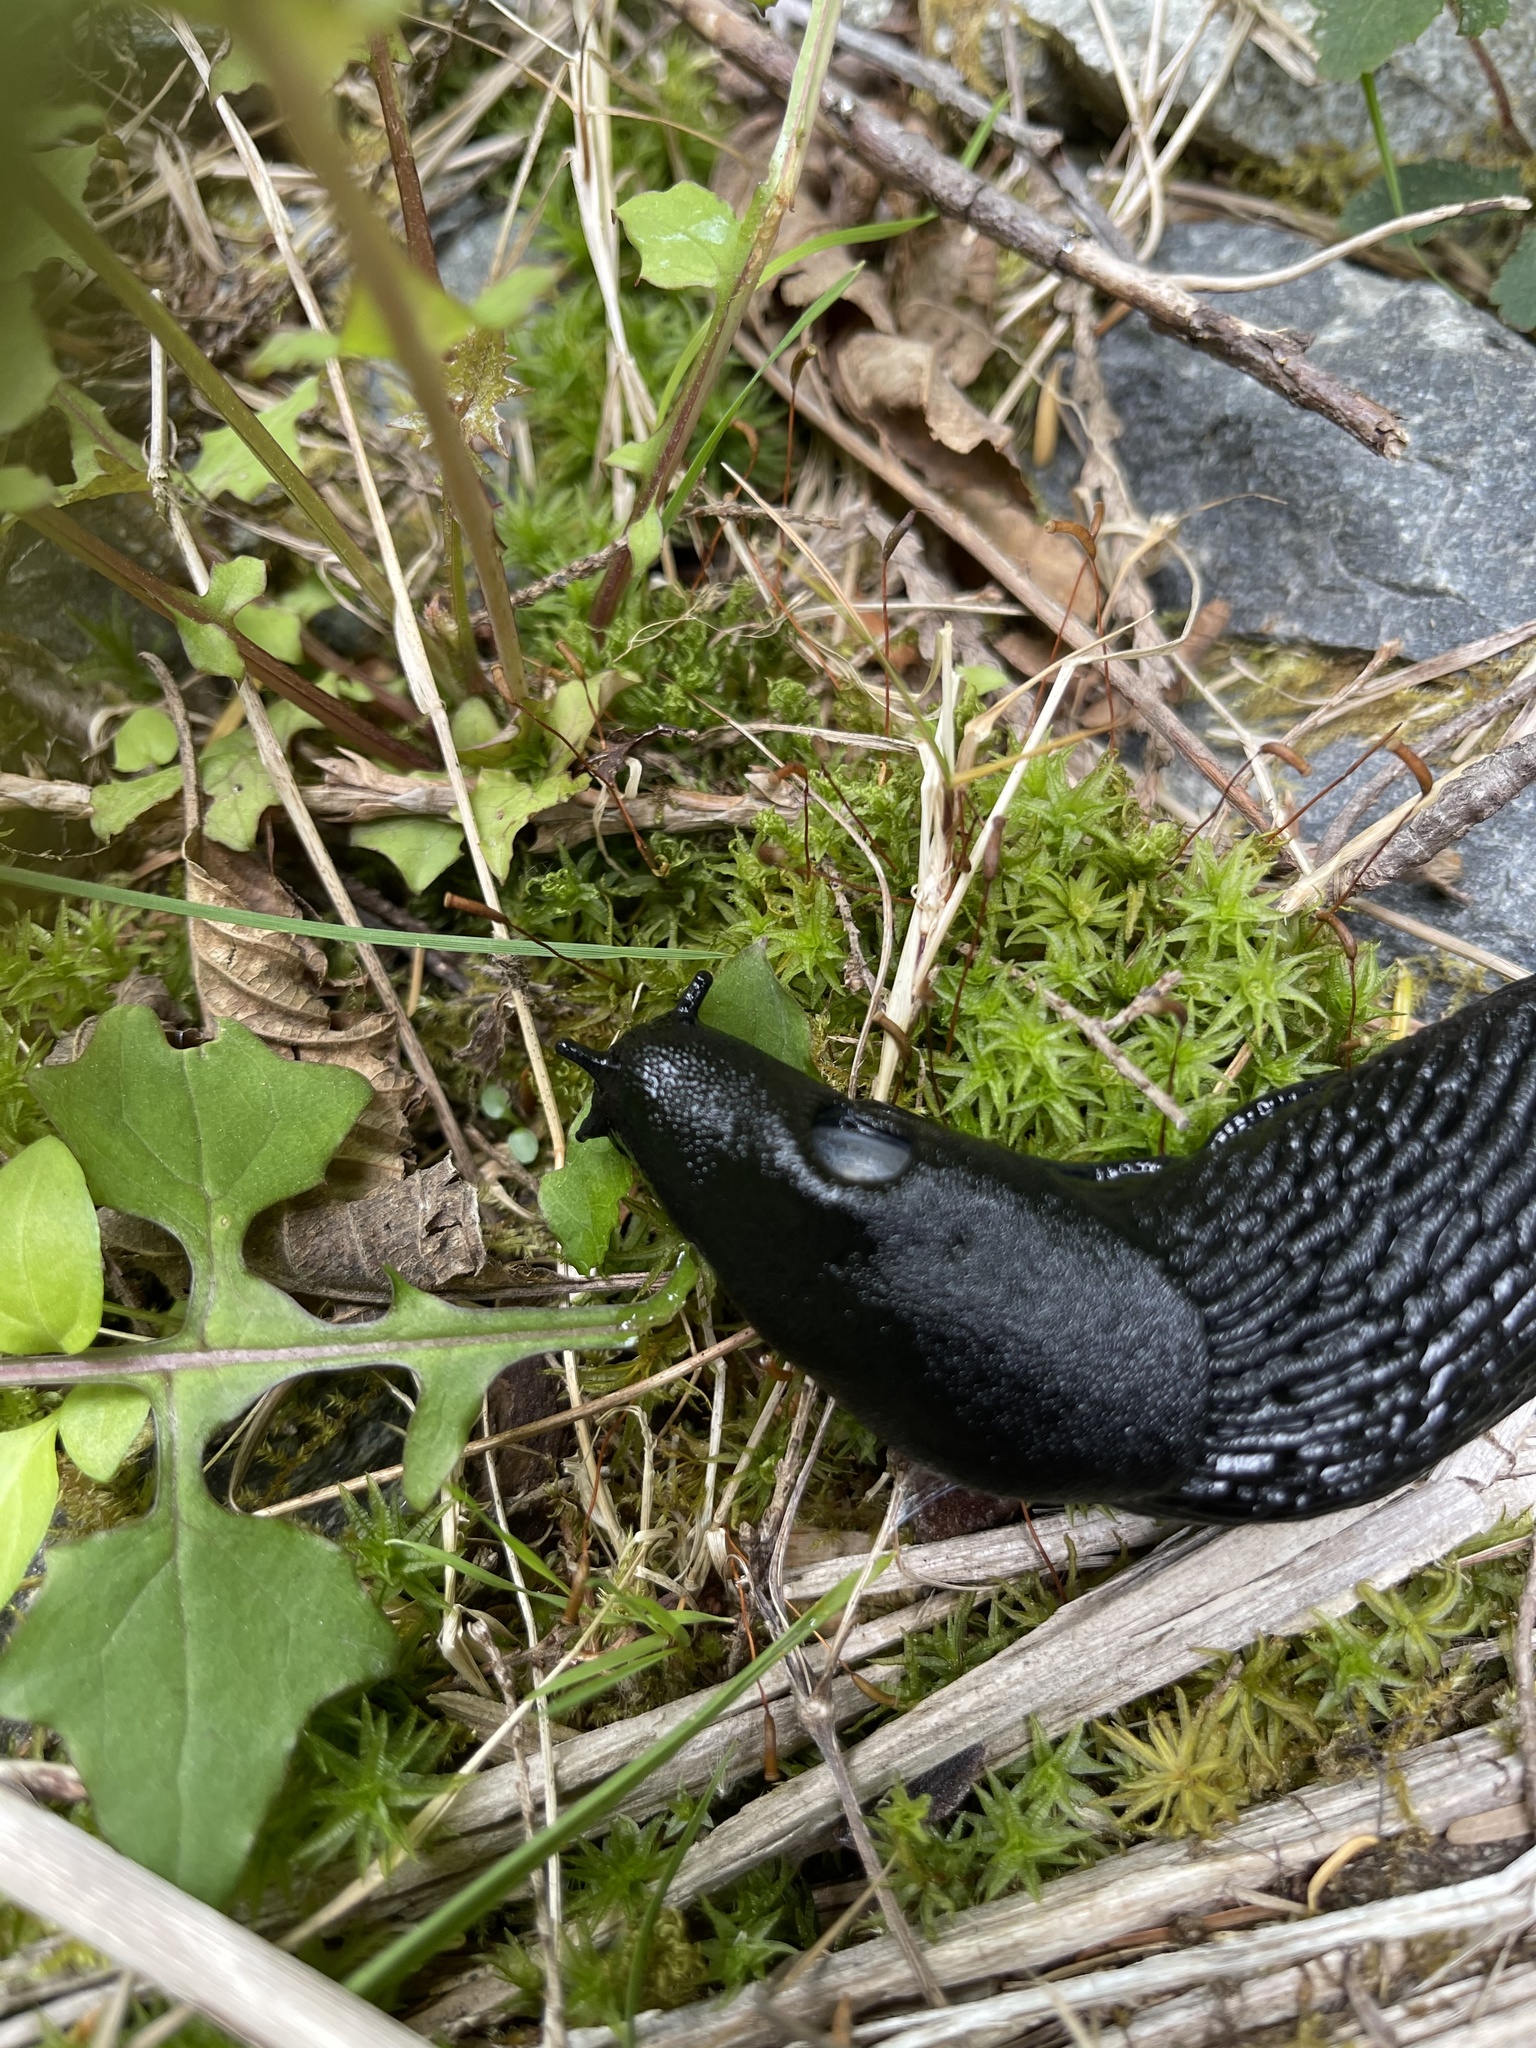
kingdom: Animalia
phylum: Mollusca
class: Gastropoda
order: Stylommatophora
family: Arionidae
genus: Arion
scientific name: Arion
